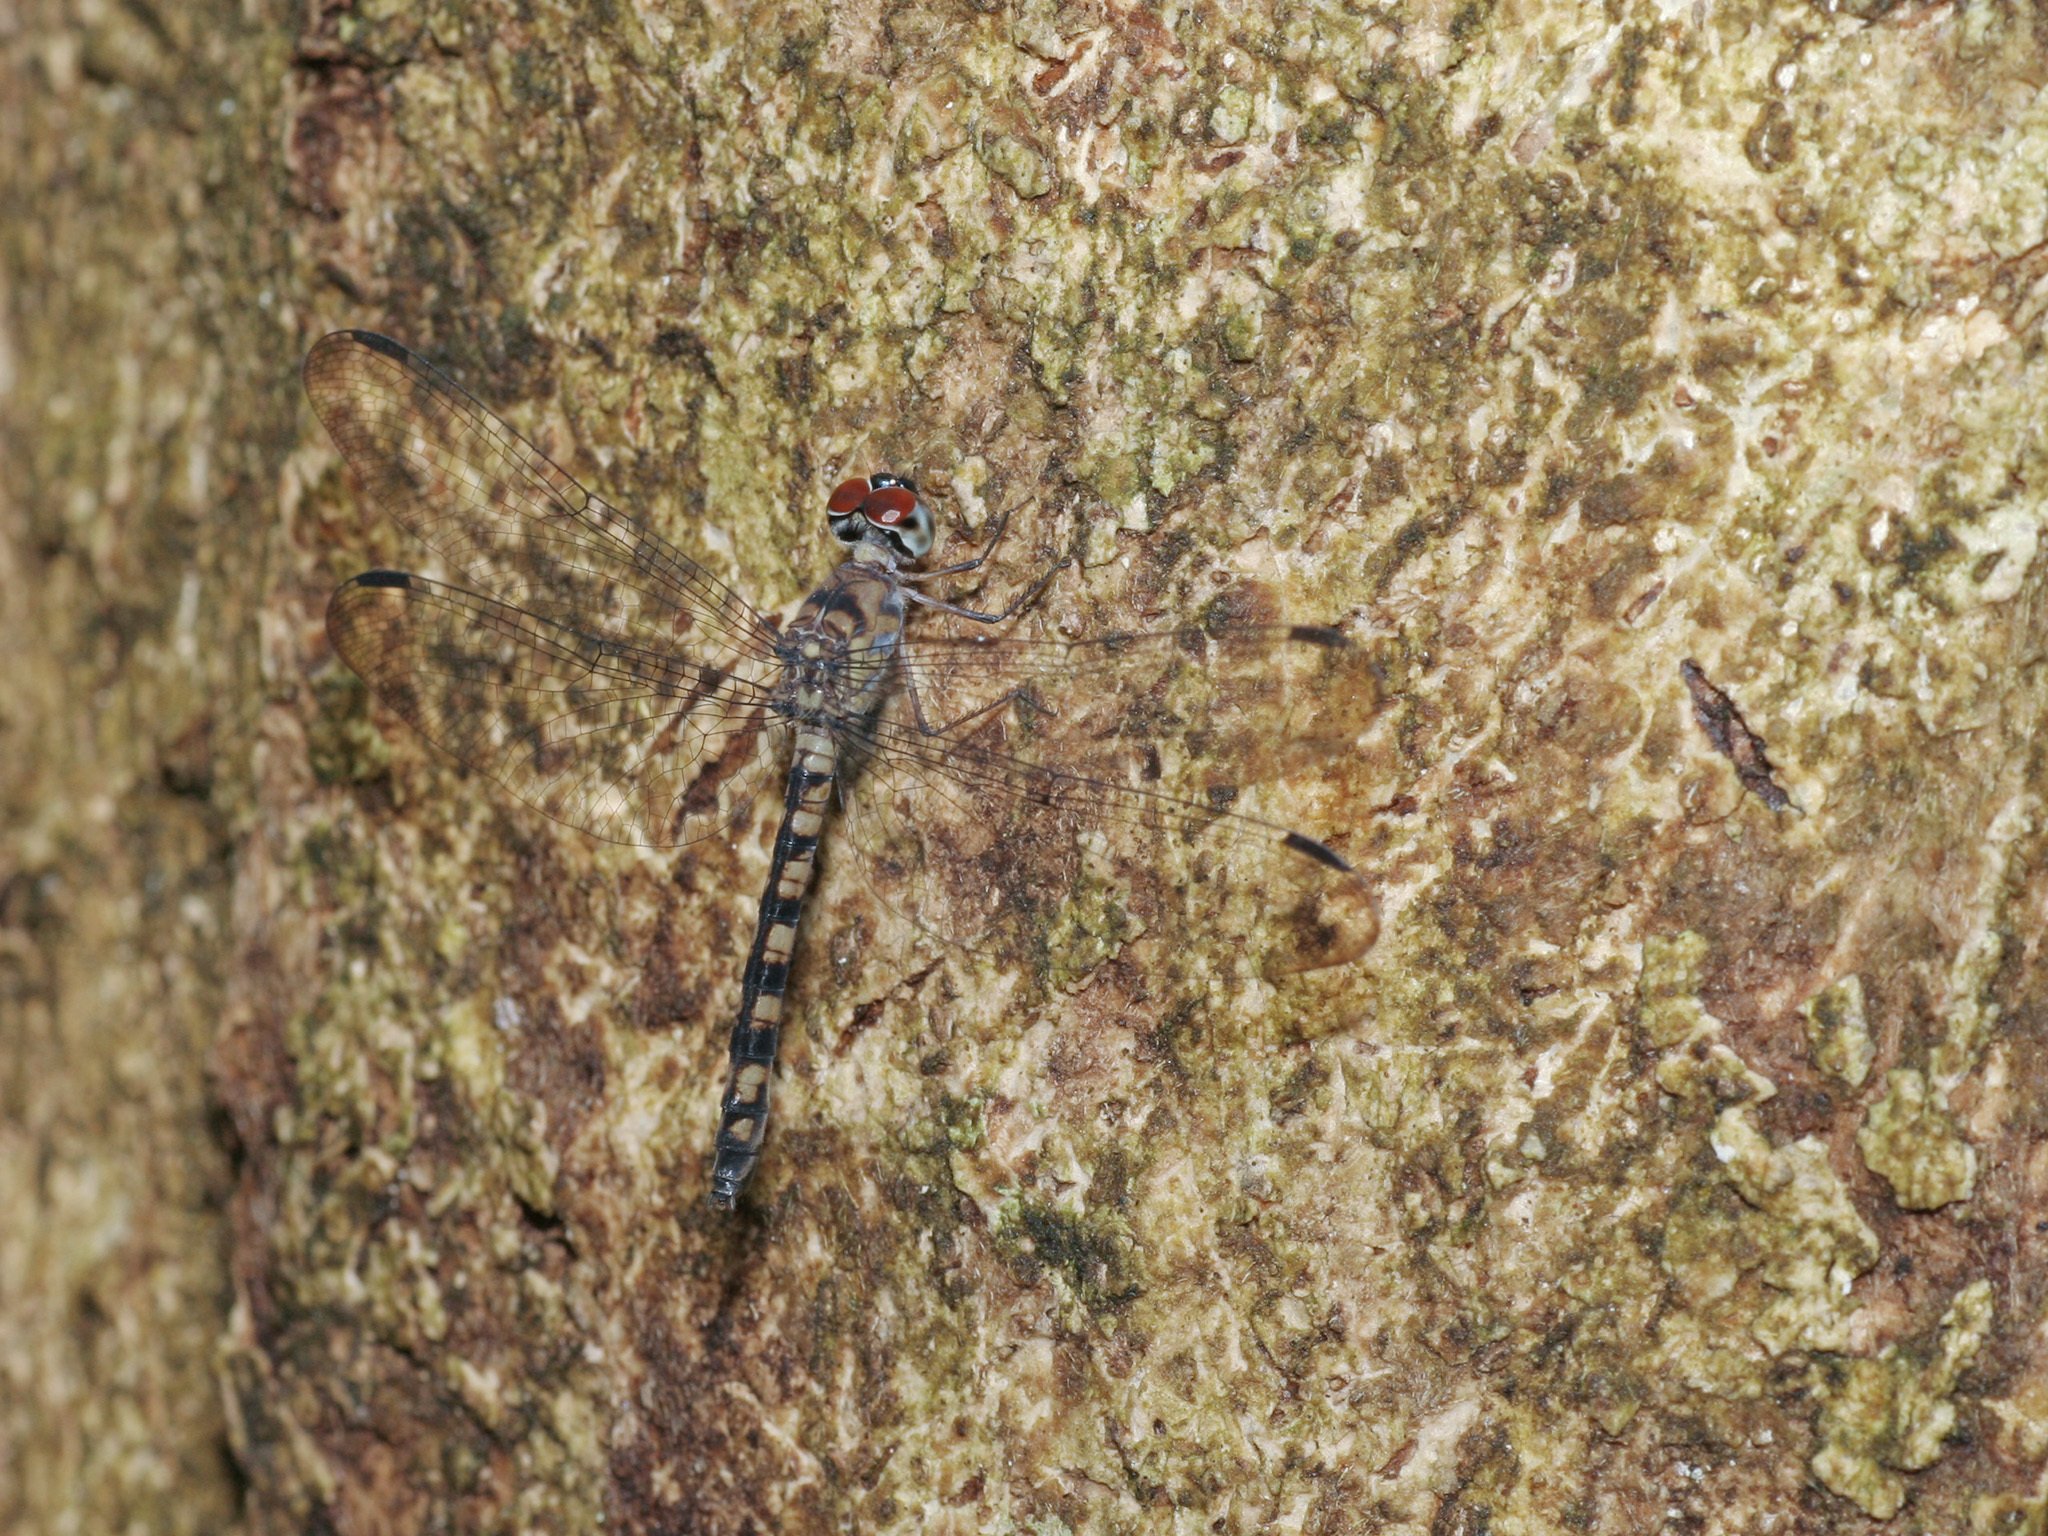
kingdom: Animalia
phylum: Arthropoda
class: Insecta
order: Odonata
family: Libellulidae
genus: Tyriobapta
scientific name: Tyriobapta torrida
